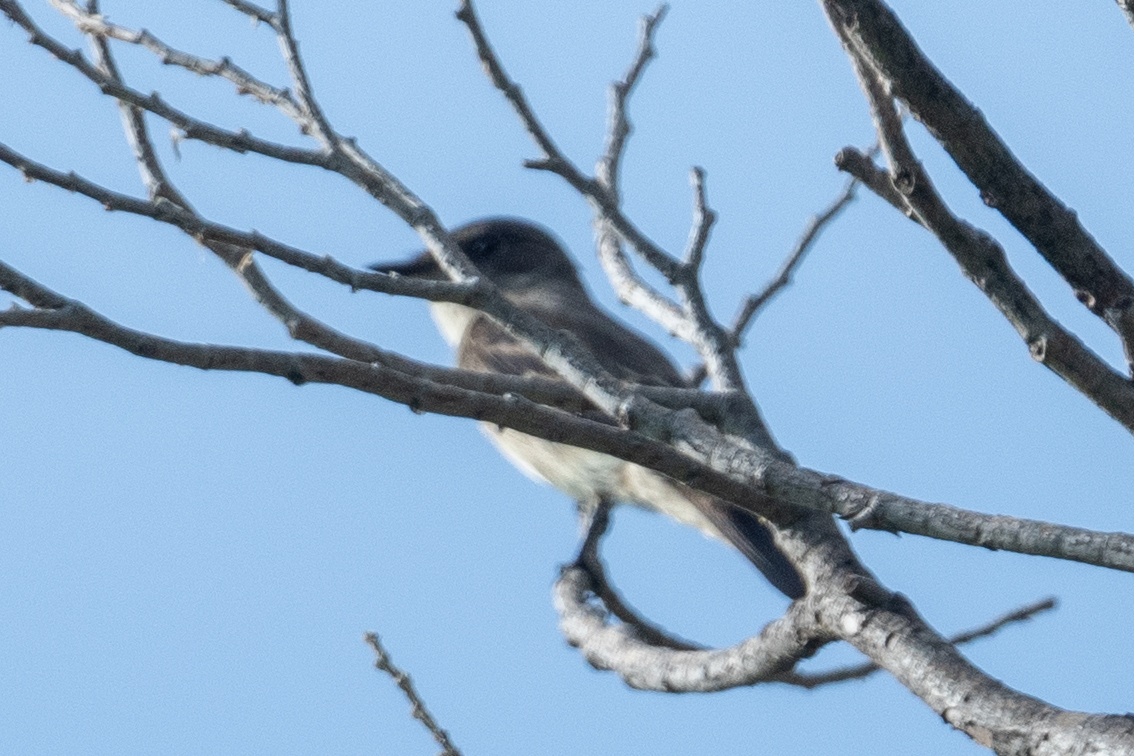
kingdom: Animalia
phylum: Chordata
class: Aves
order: Passeriformes
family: Tyrannidae
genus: Contopus
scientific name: Contopus sordidulus
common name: Western wood-pewee
